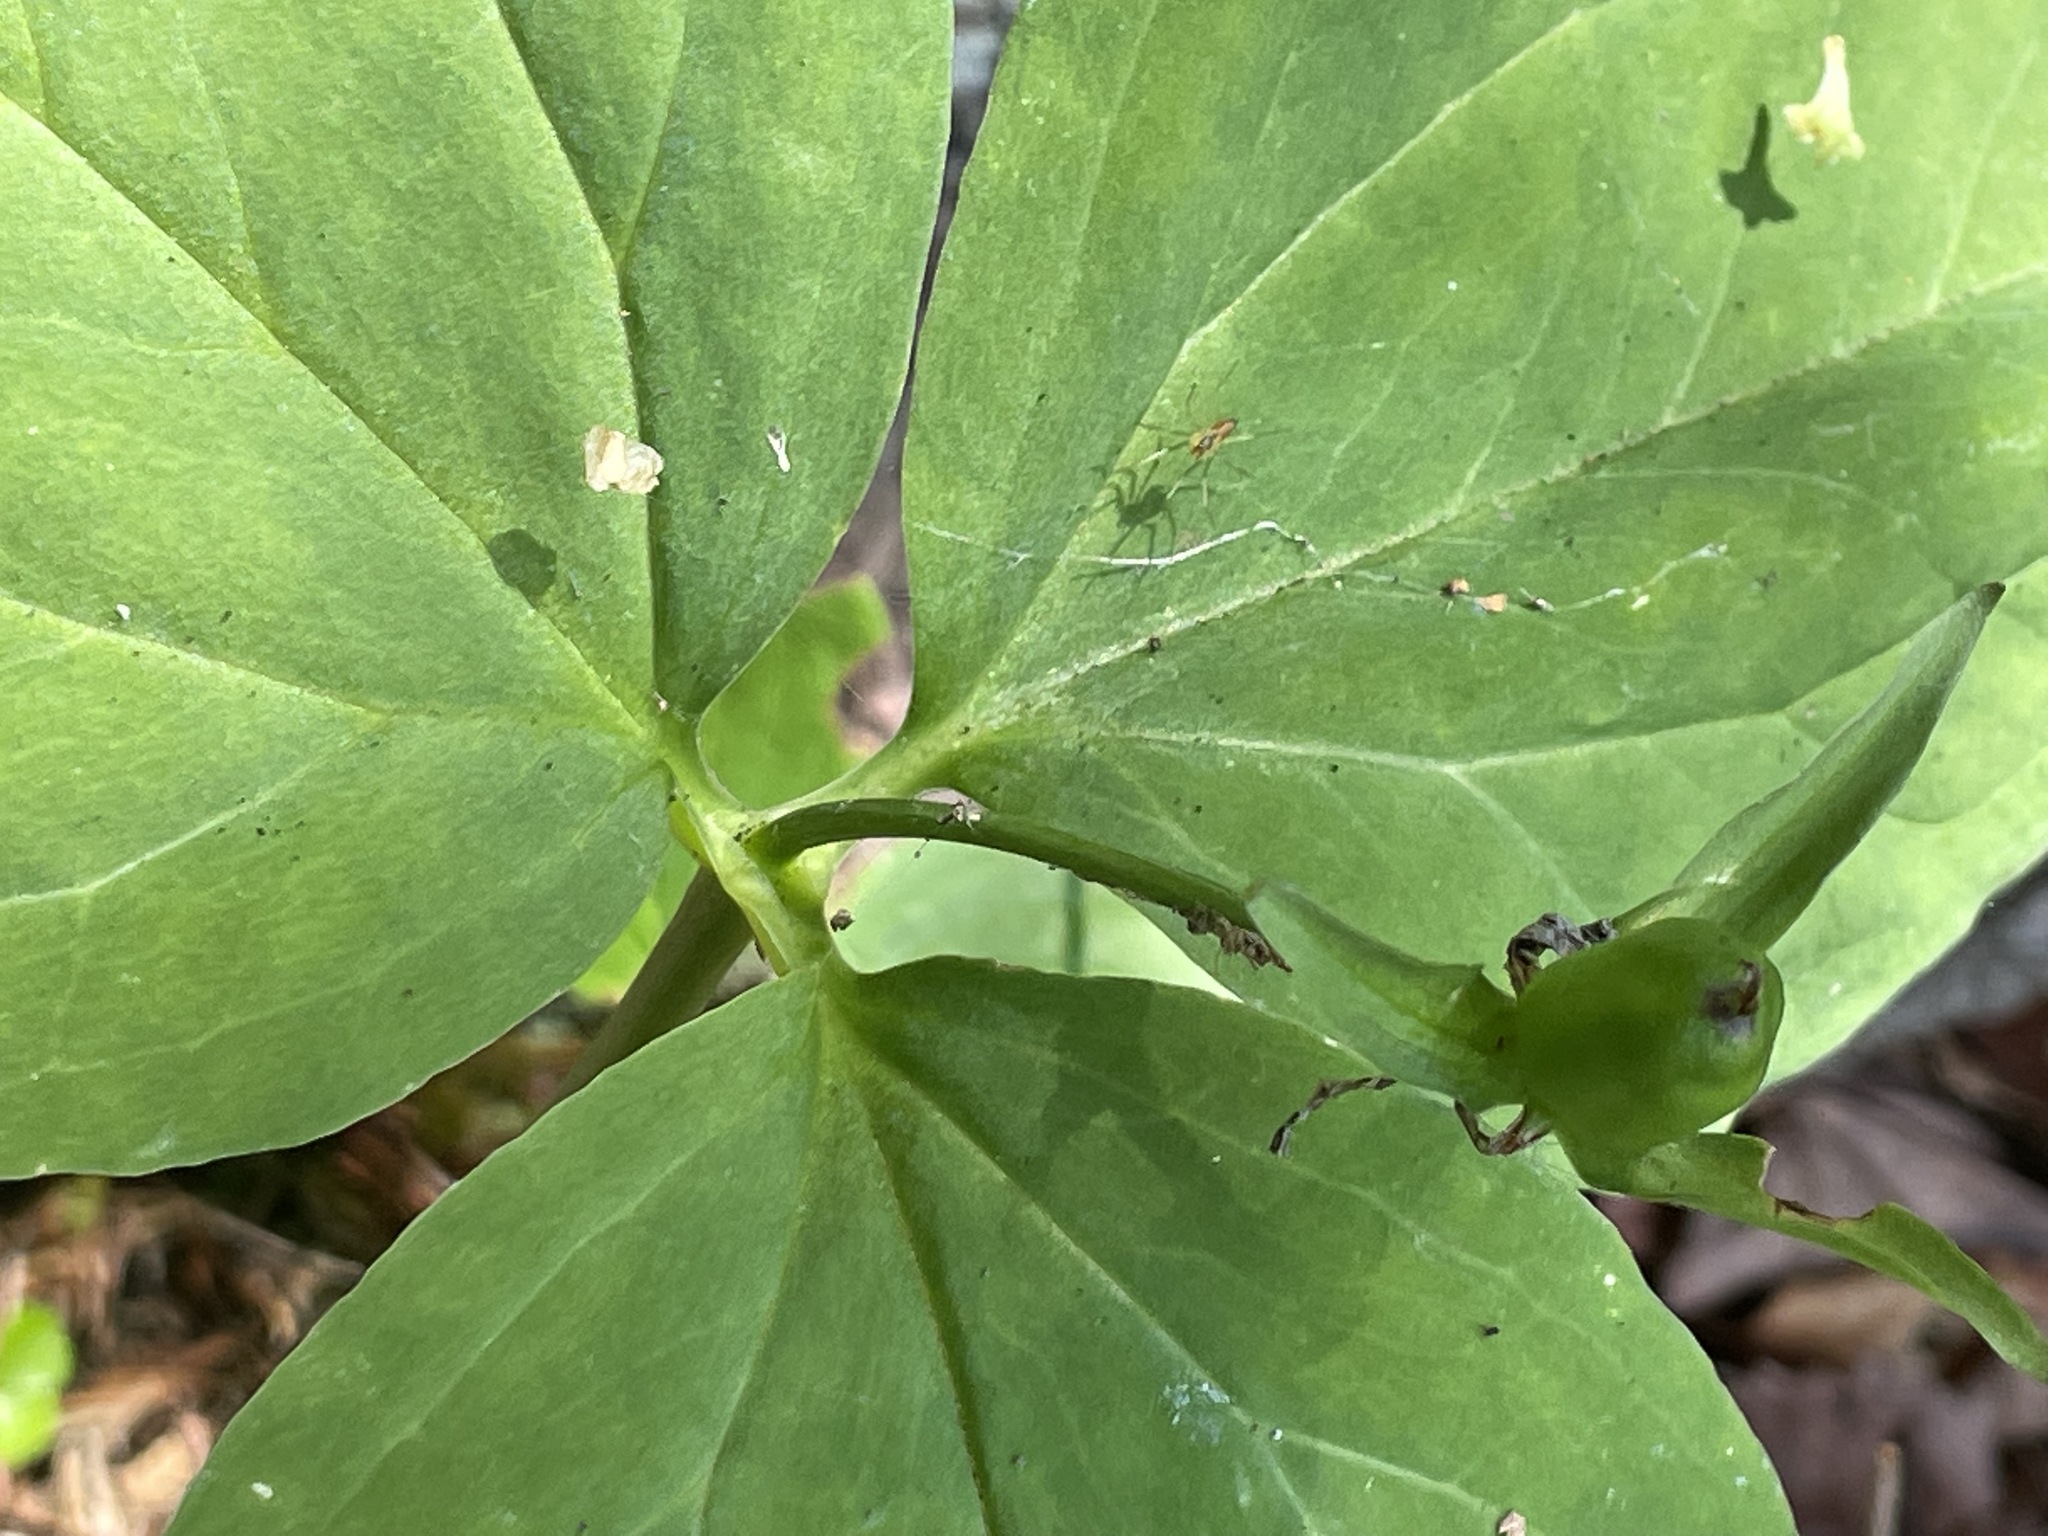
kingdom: Plantae
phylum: Tracheophyta
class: Liliopsida
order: Liliales
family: Melanthiaceae
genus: Trillium
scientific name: Trillium undulatum
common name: Paint trillium
